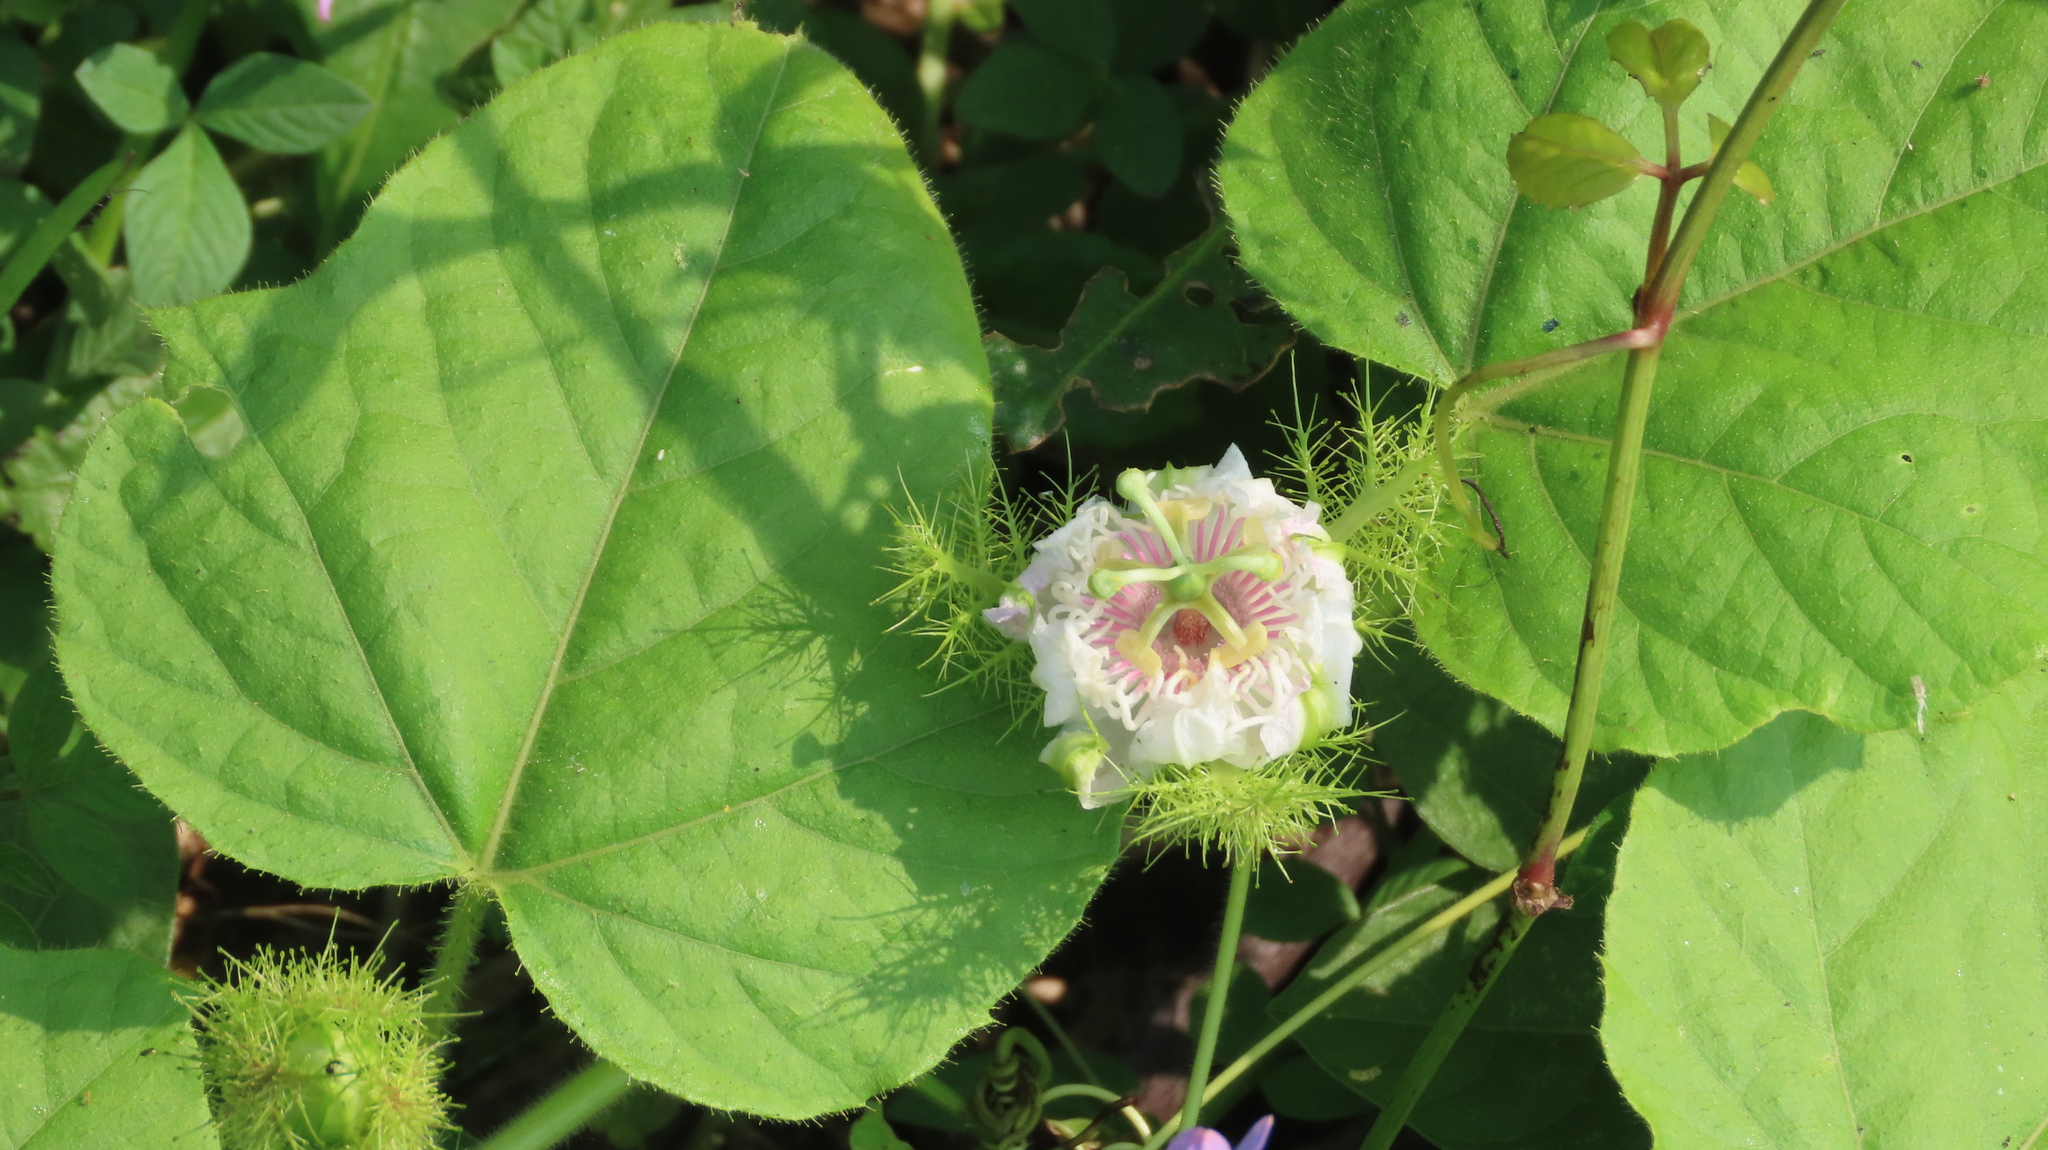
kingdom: Plantae
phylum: Tracheophyta
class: Magnoliopsida
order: Malpighiales
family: Passifloraceae
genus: Passiflora
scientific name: Passiflora vesicaria
